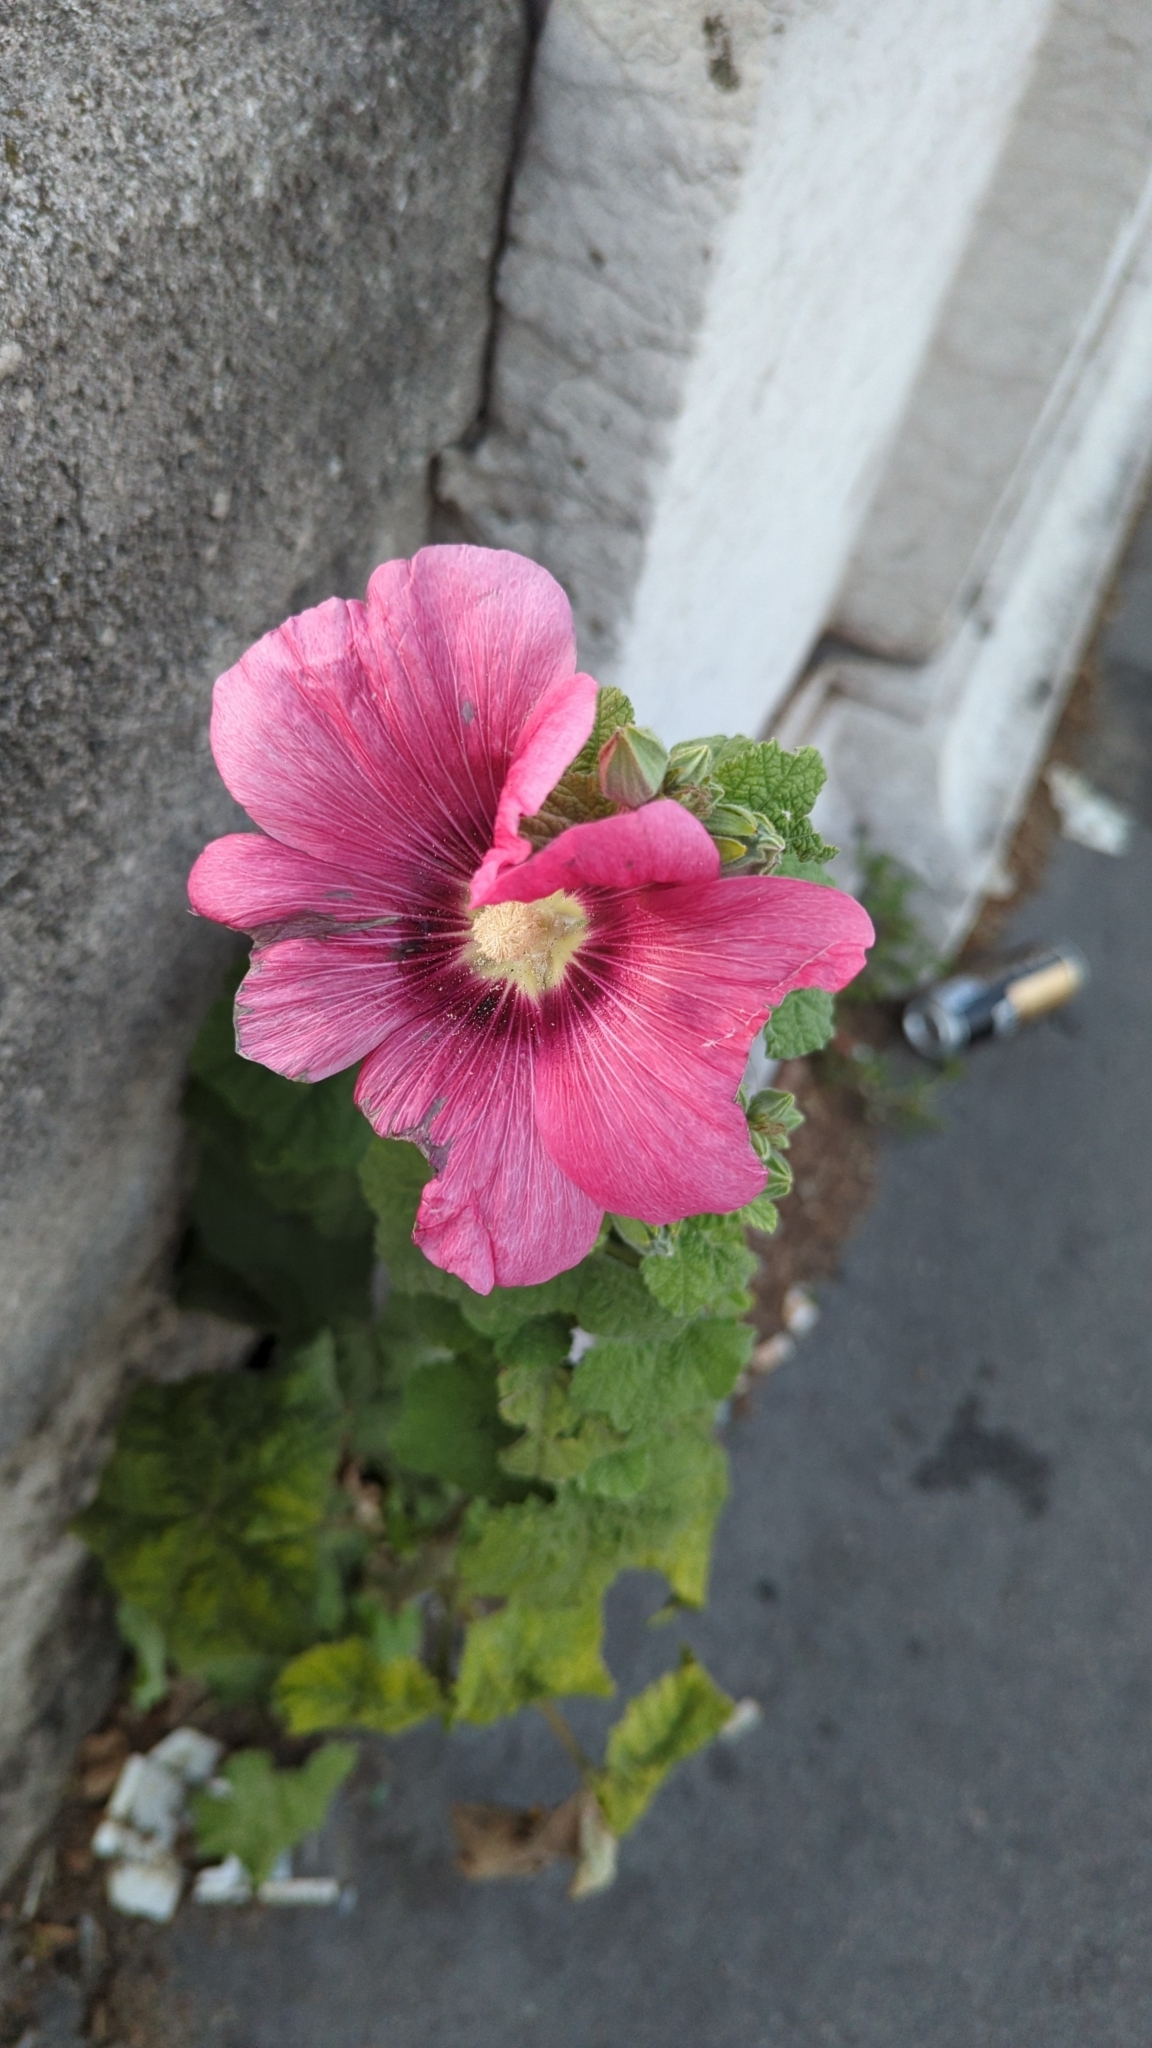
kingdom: Plantae
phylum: Tracheophyta
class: Magnoliopsida
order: Malvales
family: Malvaceae
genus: Alcea
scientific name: Alcea rosea
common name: Hollyhock
